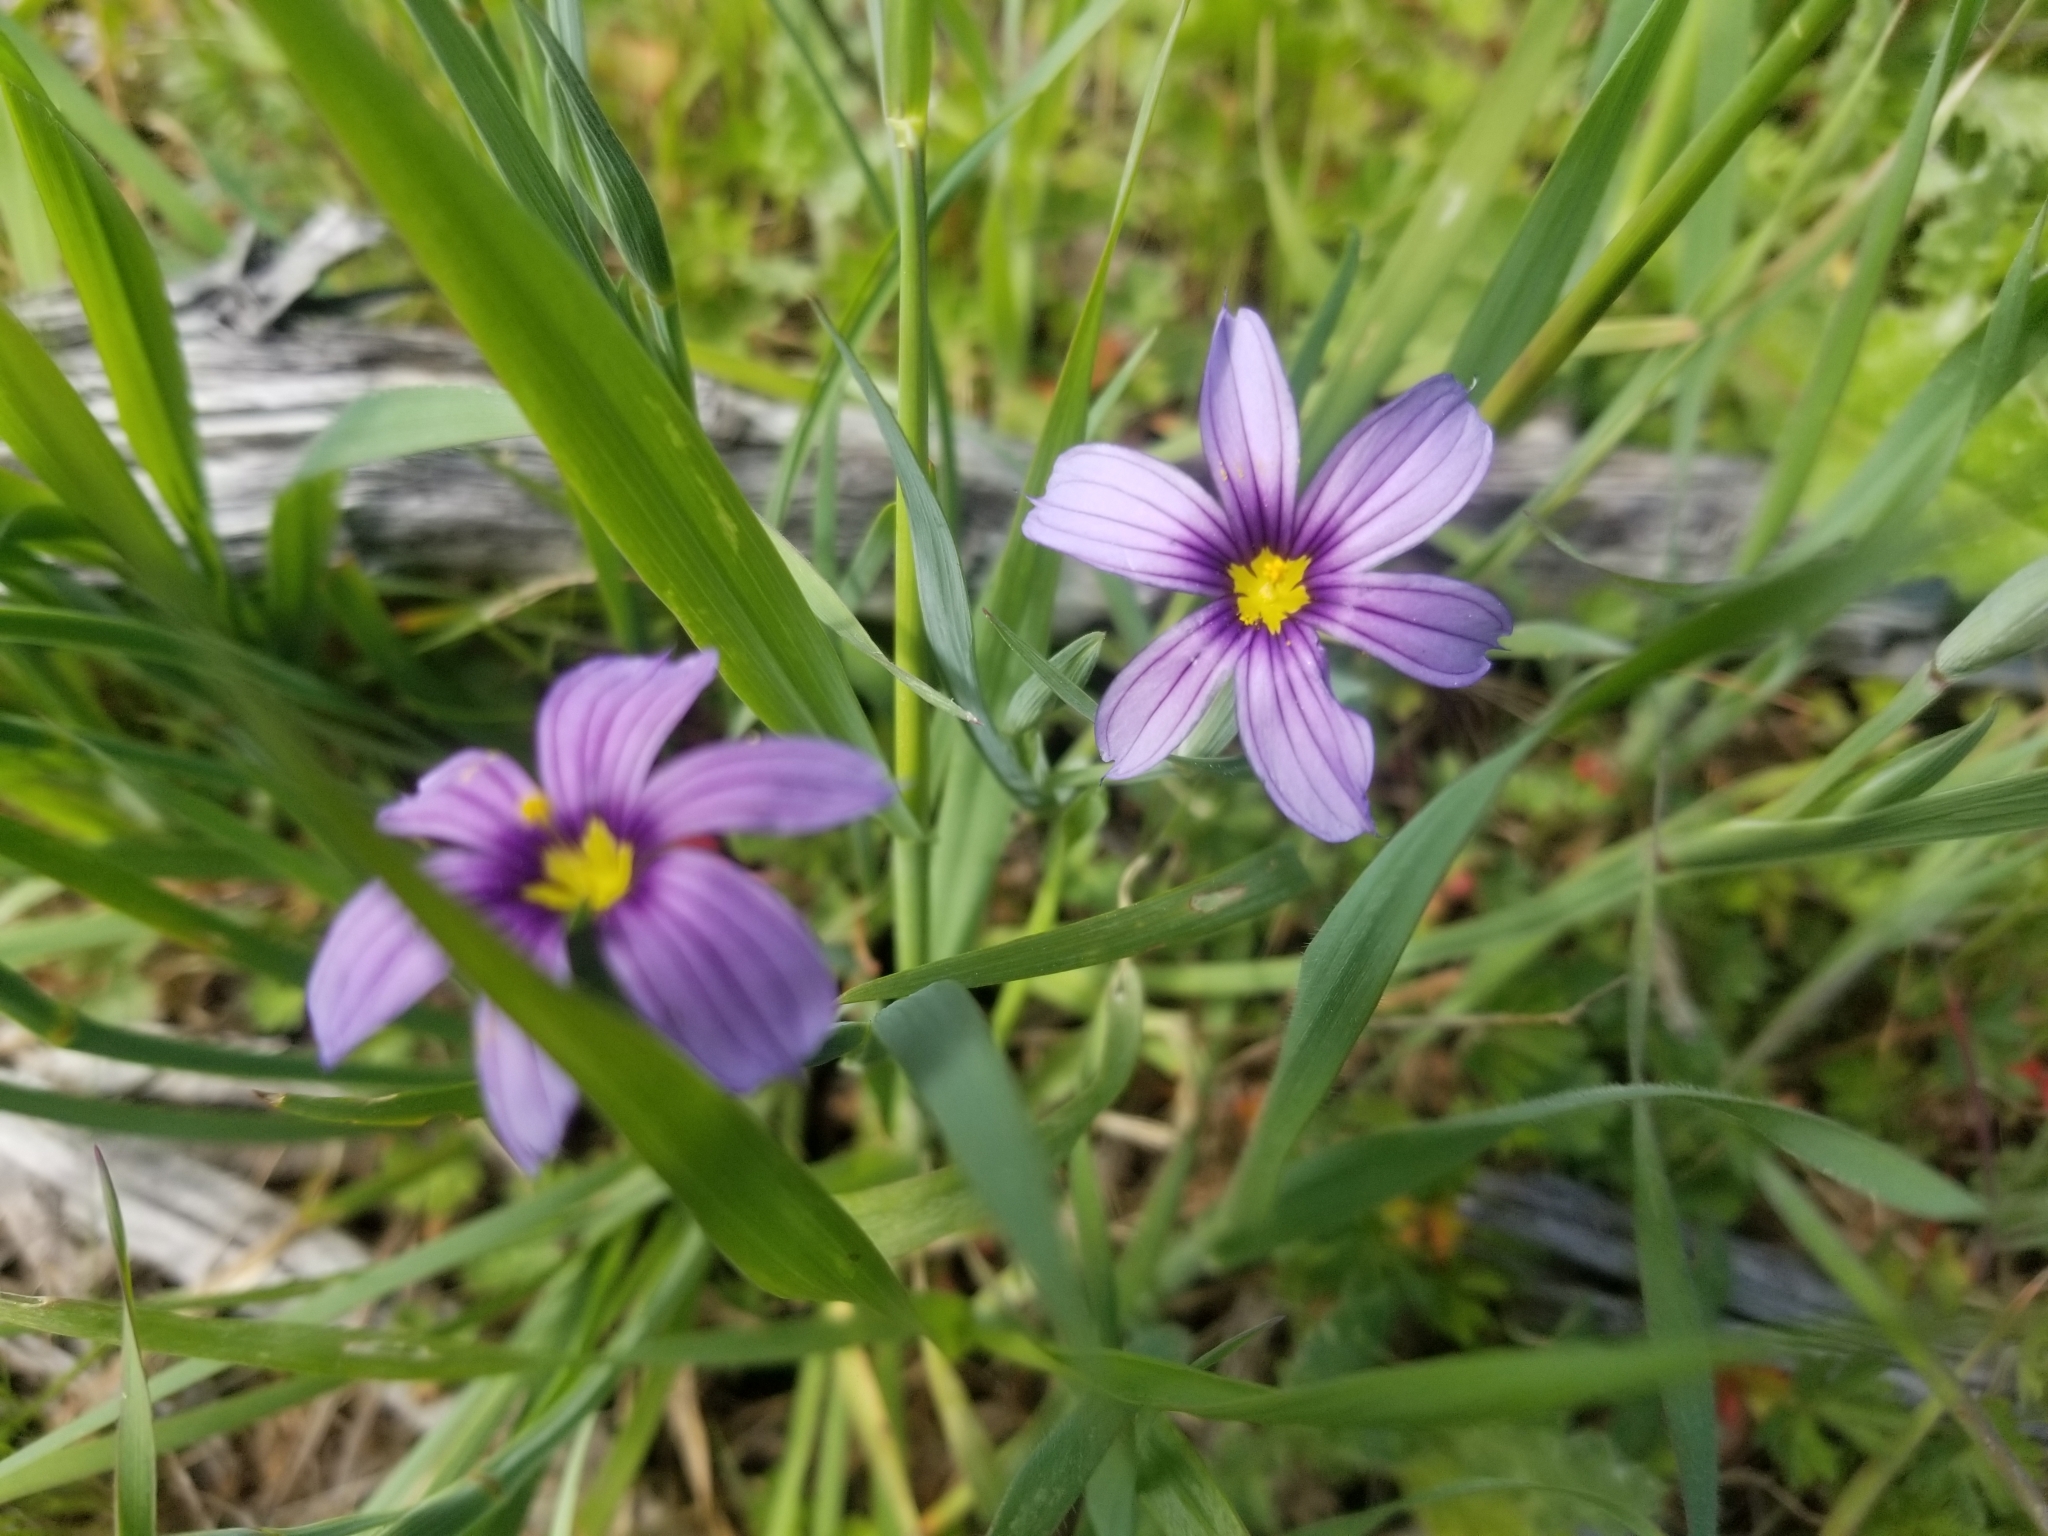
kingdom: Plantae
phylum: Tracheophyta
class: Liliopsida
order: Asparagales
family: Iridaceae
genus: Sisyrinchium
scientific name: Sisyrinchium bellum
